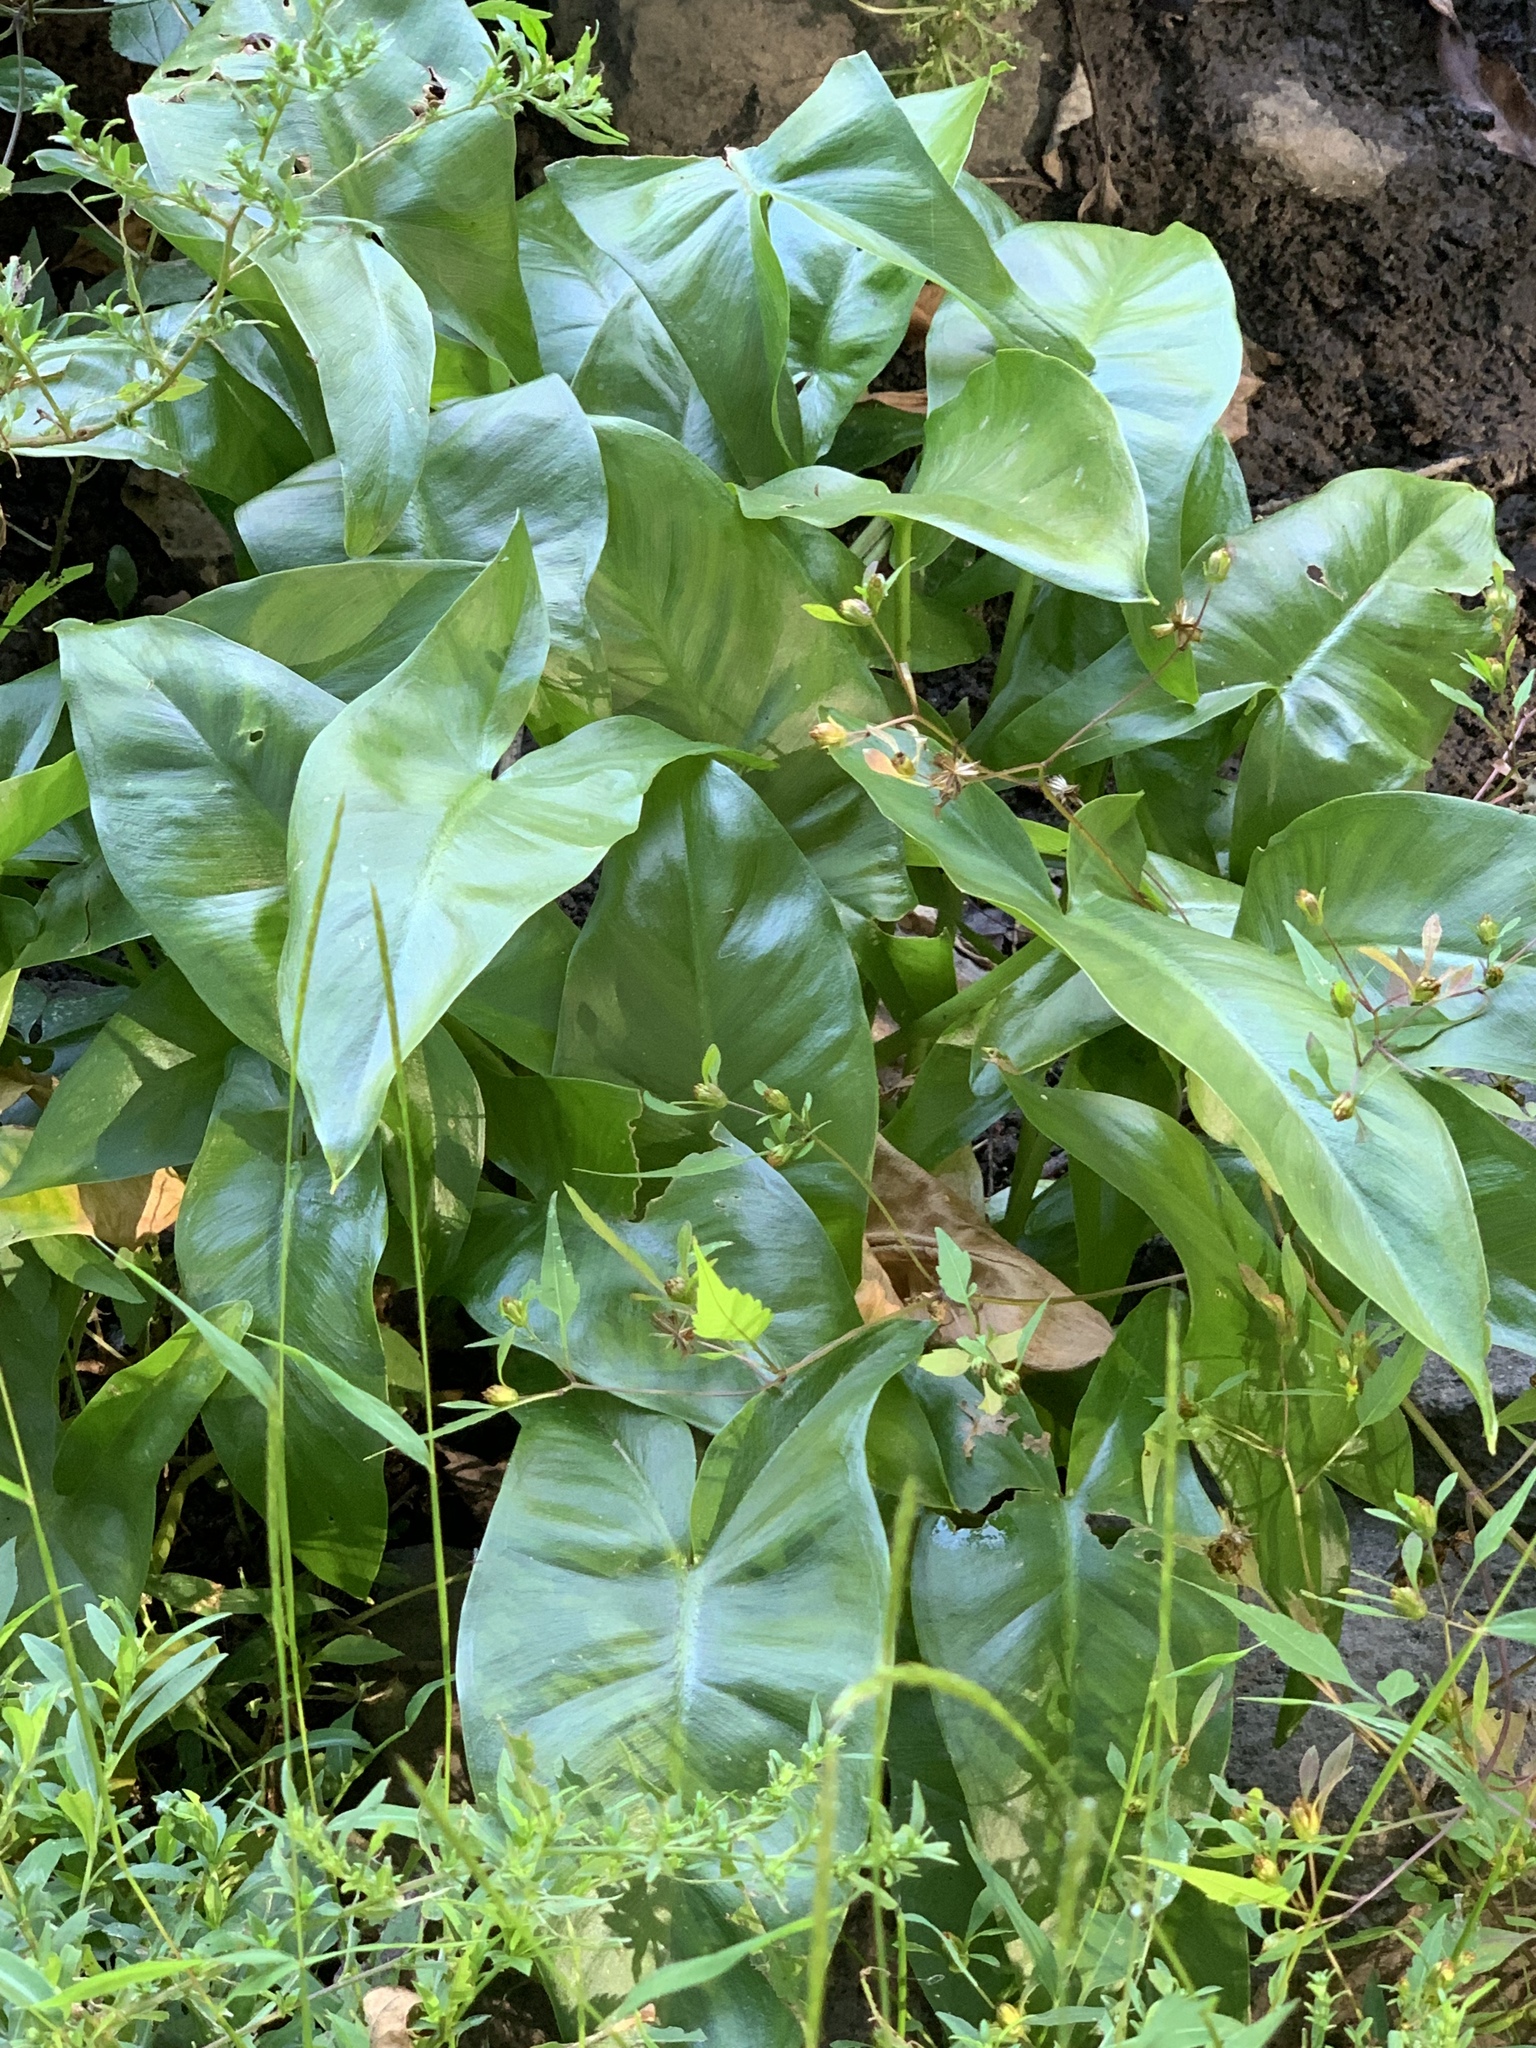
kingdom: Plantae
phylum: Tracheophyta
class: Liliopsida
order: Alismatales
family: Araceae
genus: Peltandra
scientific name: Peltandra virginica
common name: Arrow arum
